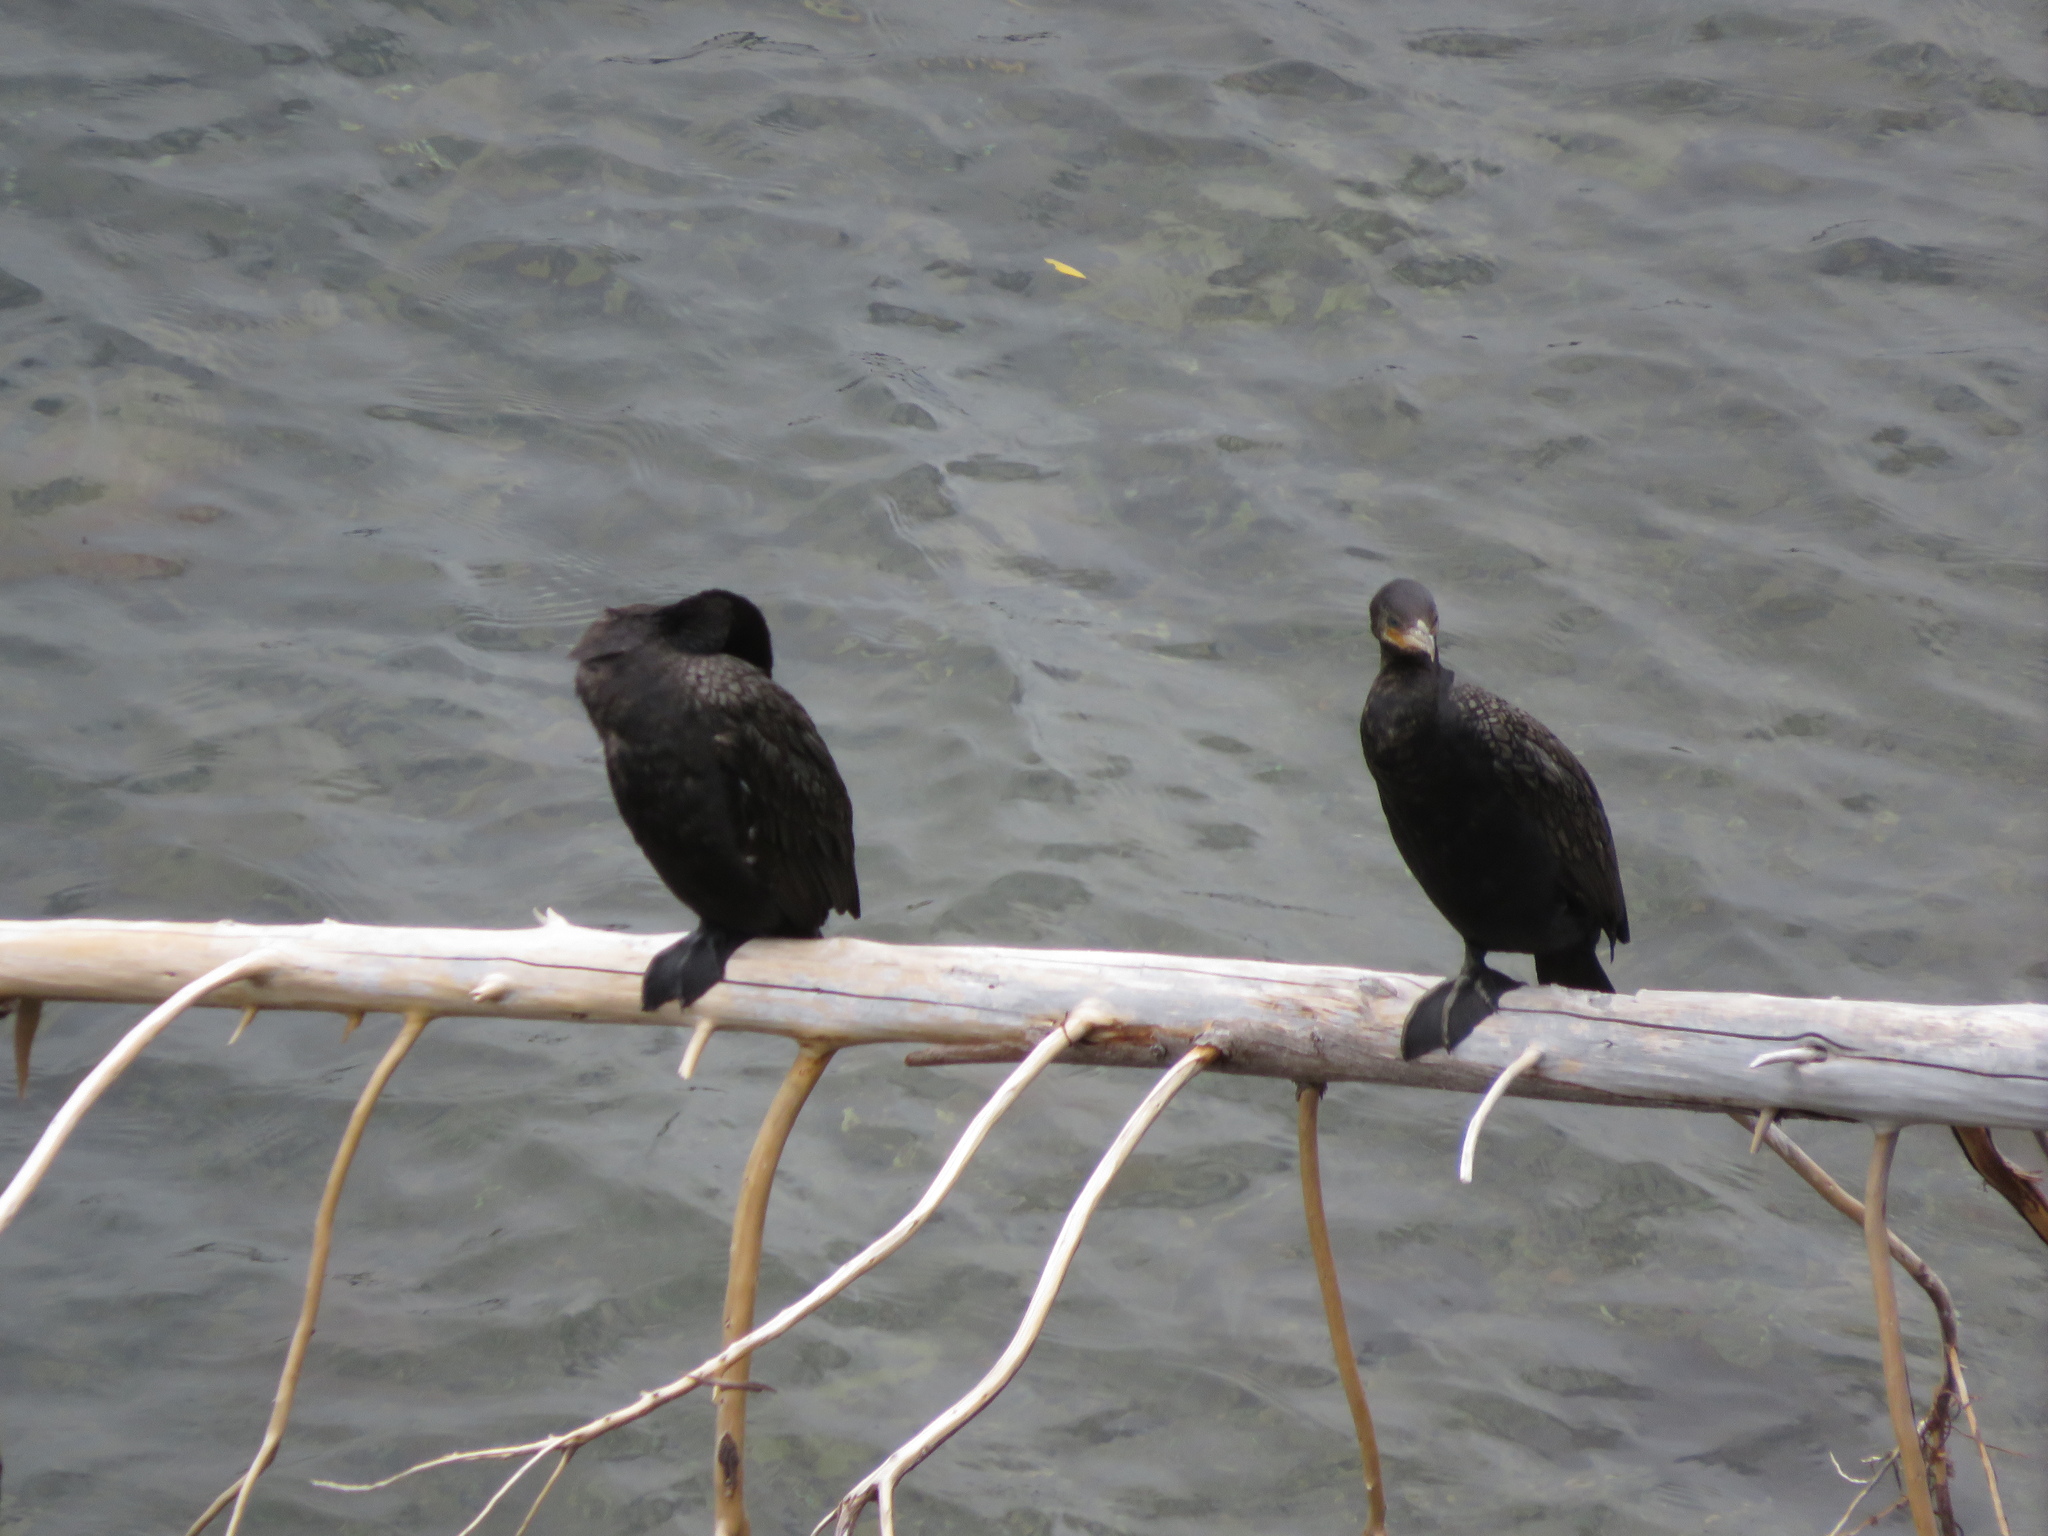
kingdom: Animalia
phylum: Chordata
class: Aves
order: Suliformes
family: Phalacrocoracidae
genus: Phalacrocorax
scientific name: Phalacrocorax brasilianus
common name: Neotropic cormorant
